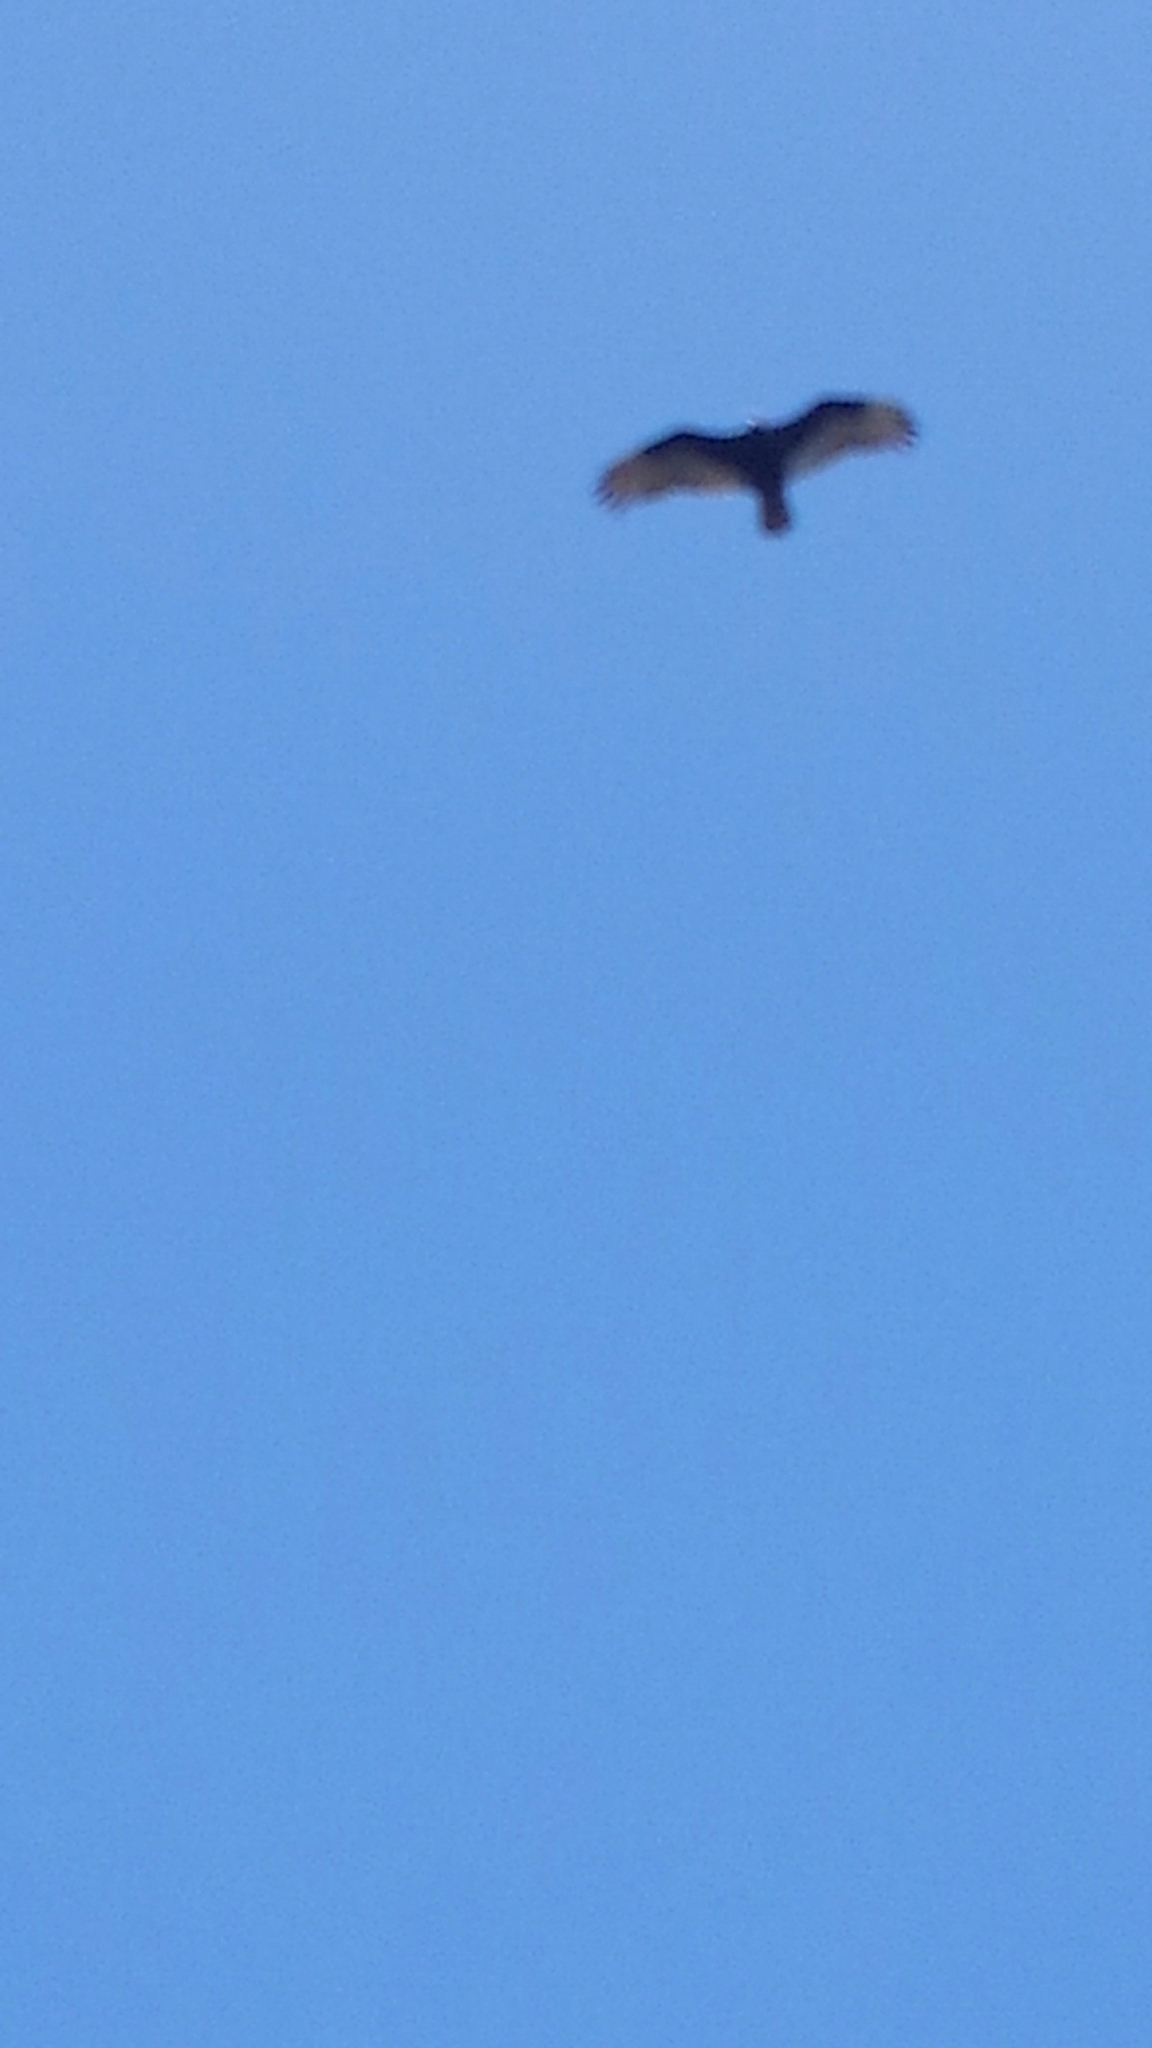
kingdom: Animalia
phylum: Chordata
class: Aves
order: Accipitriformes
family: Cathartidae
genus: Cathartes
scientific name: Cathartes aura
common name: Turkey vulture
